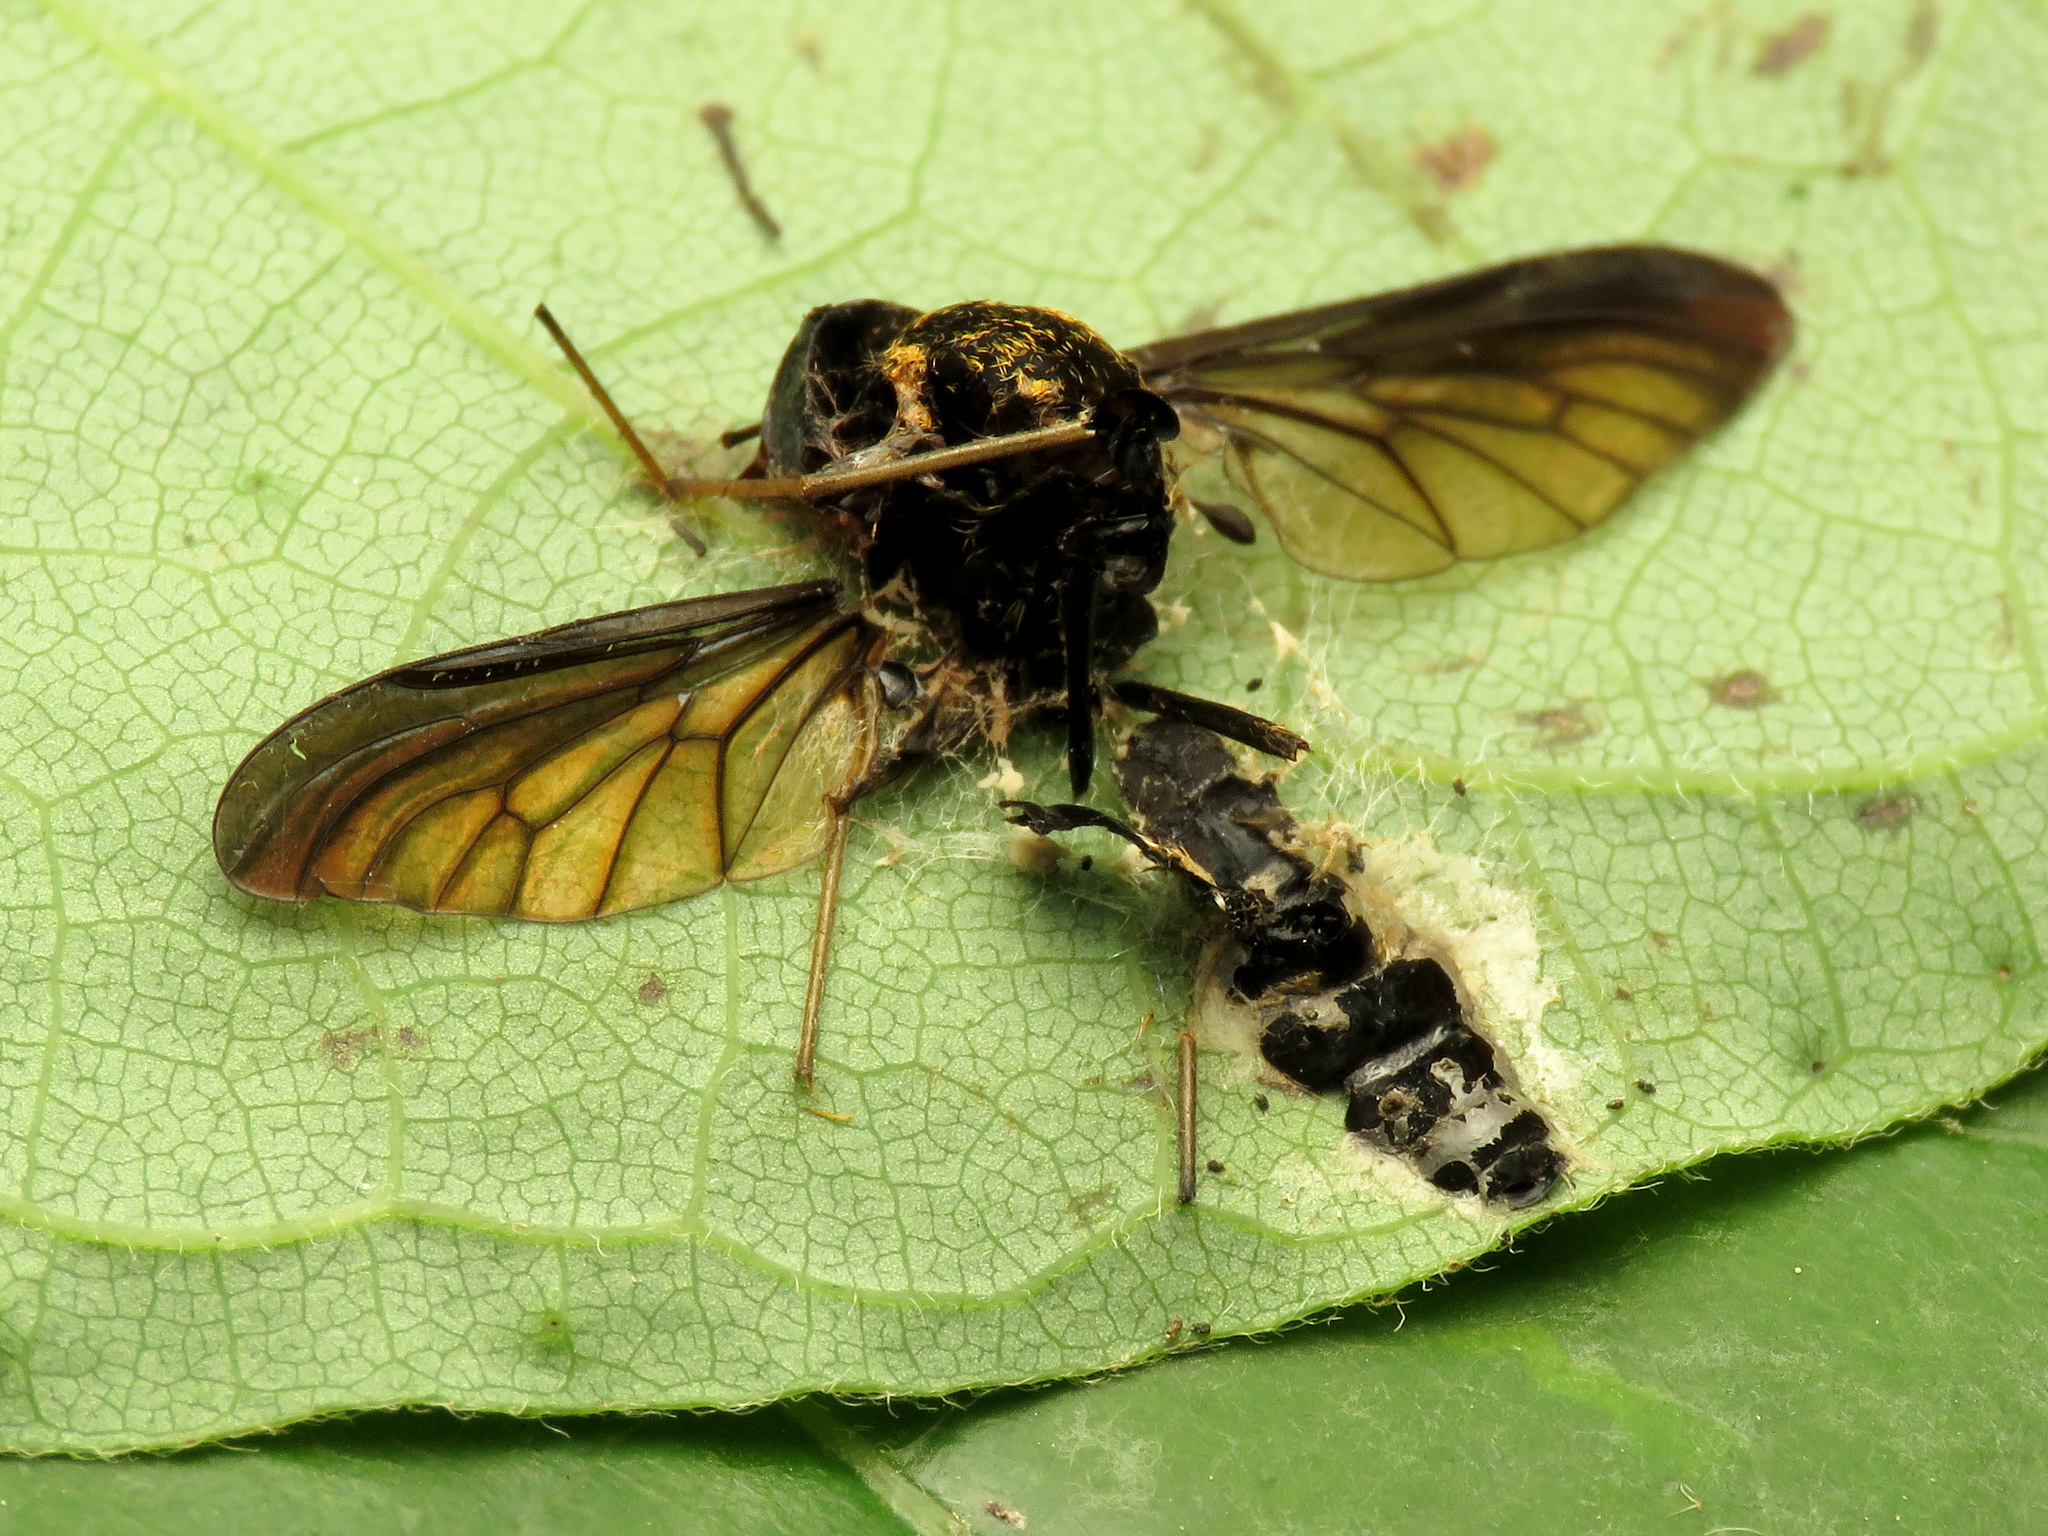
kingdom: Fungi
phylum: Entomophthoromycota
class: Entomophthoromycetes
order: Entomophthorales
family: Entomophthoraceae
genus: Furia
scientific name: Furia ithacensis
